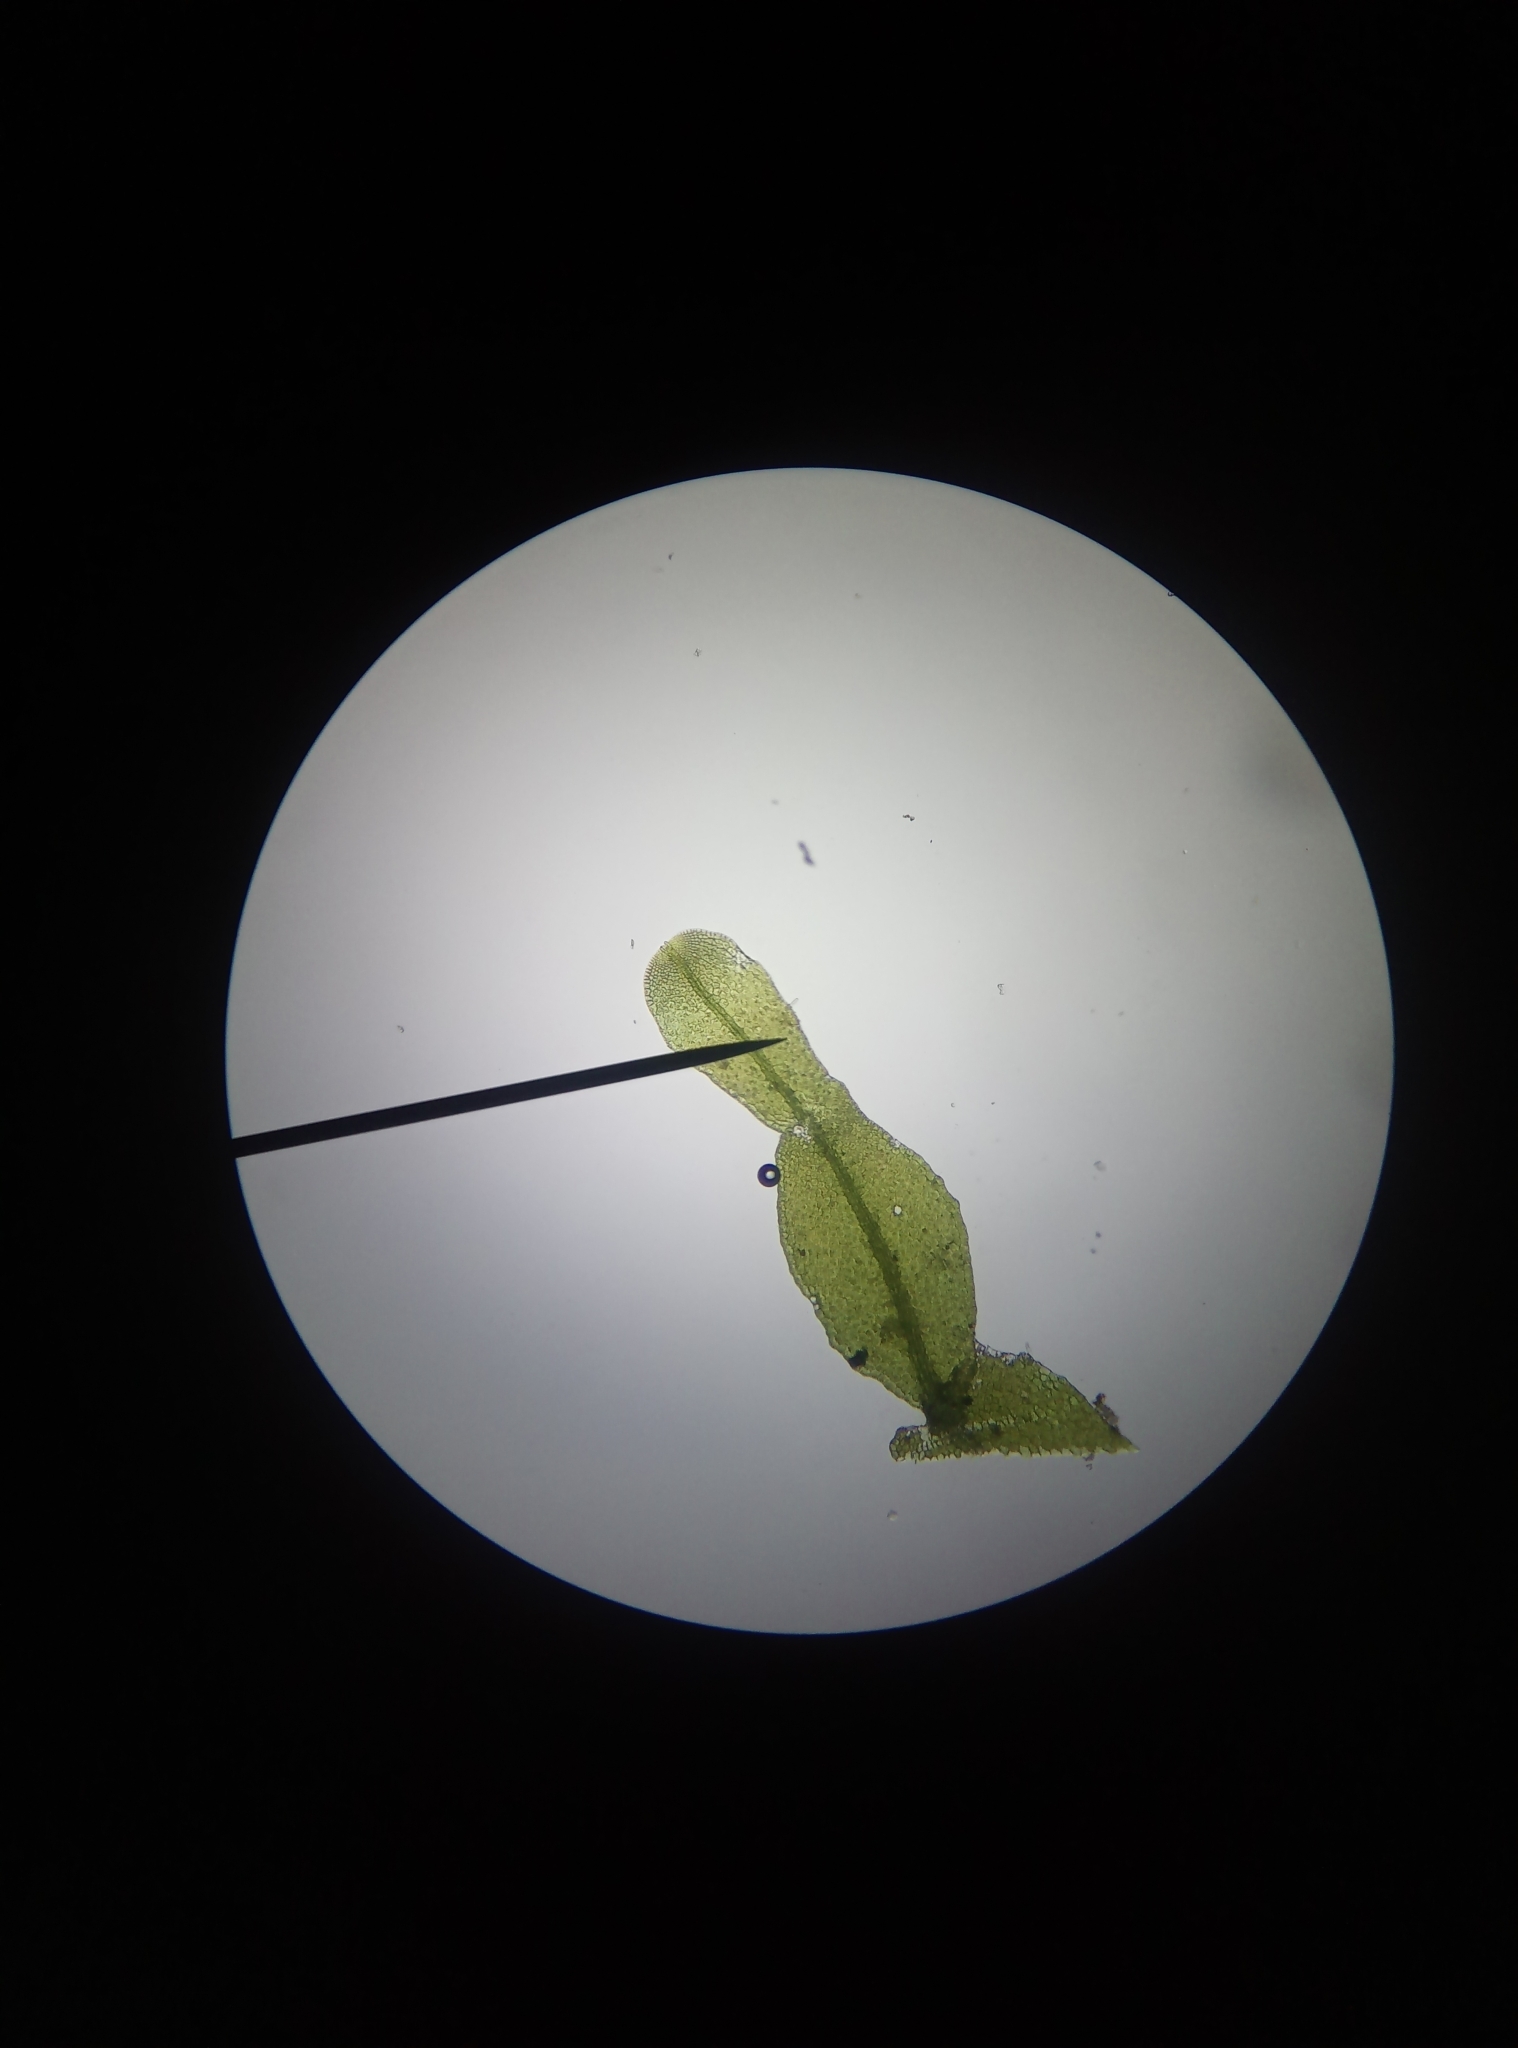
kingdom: Plantae
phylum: Marchantiophyta
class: Jungermanniopsida
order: Metzgeriales
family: Metzgeriaceae
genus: Metzgeria
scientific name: Metzgeria furcata
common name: Forked veilwort
